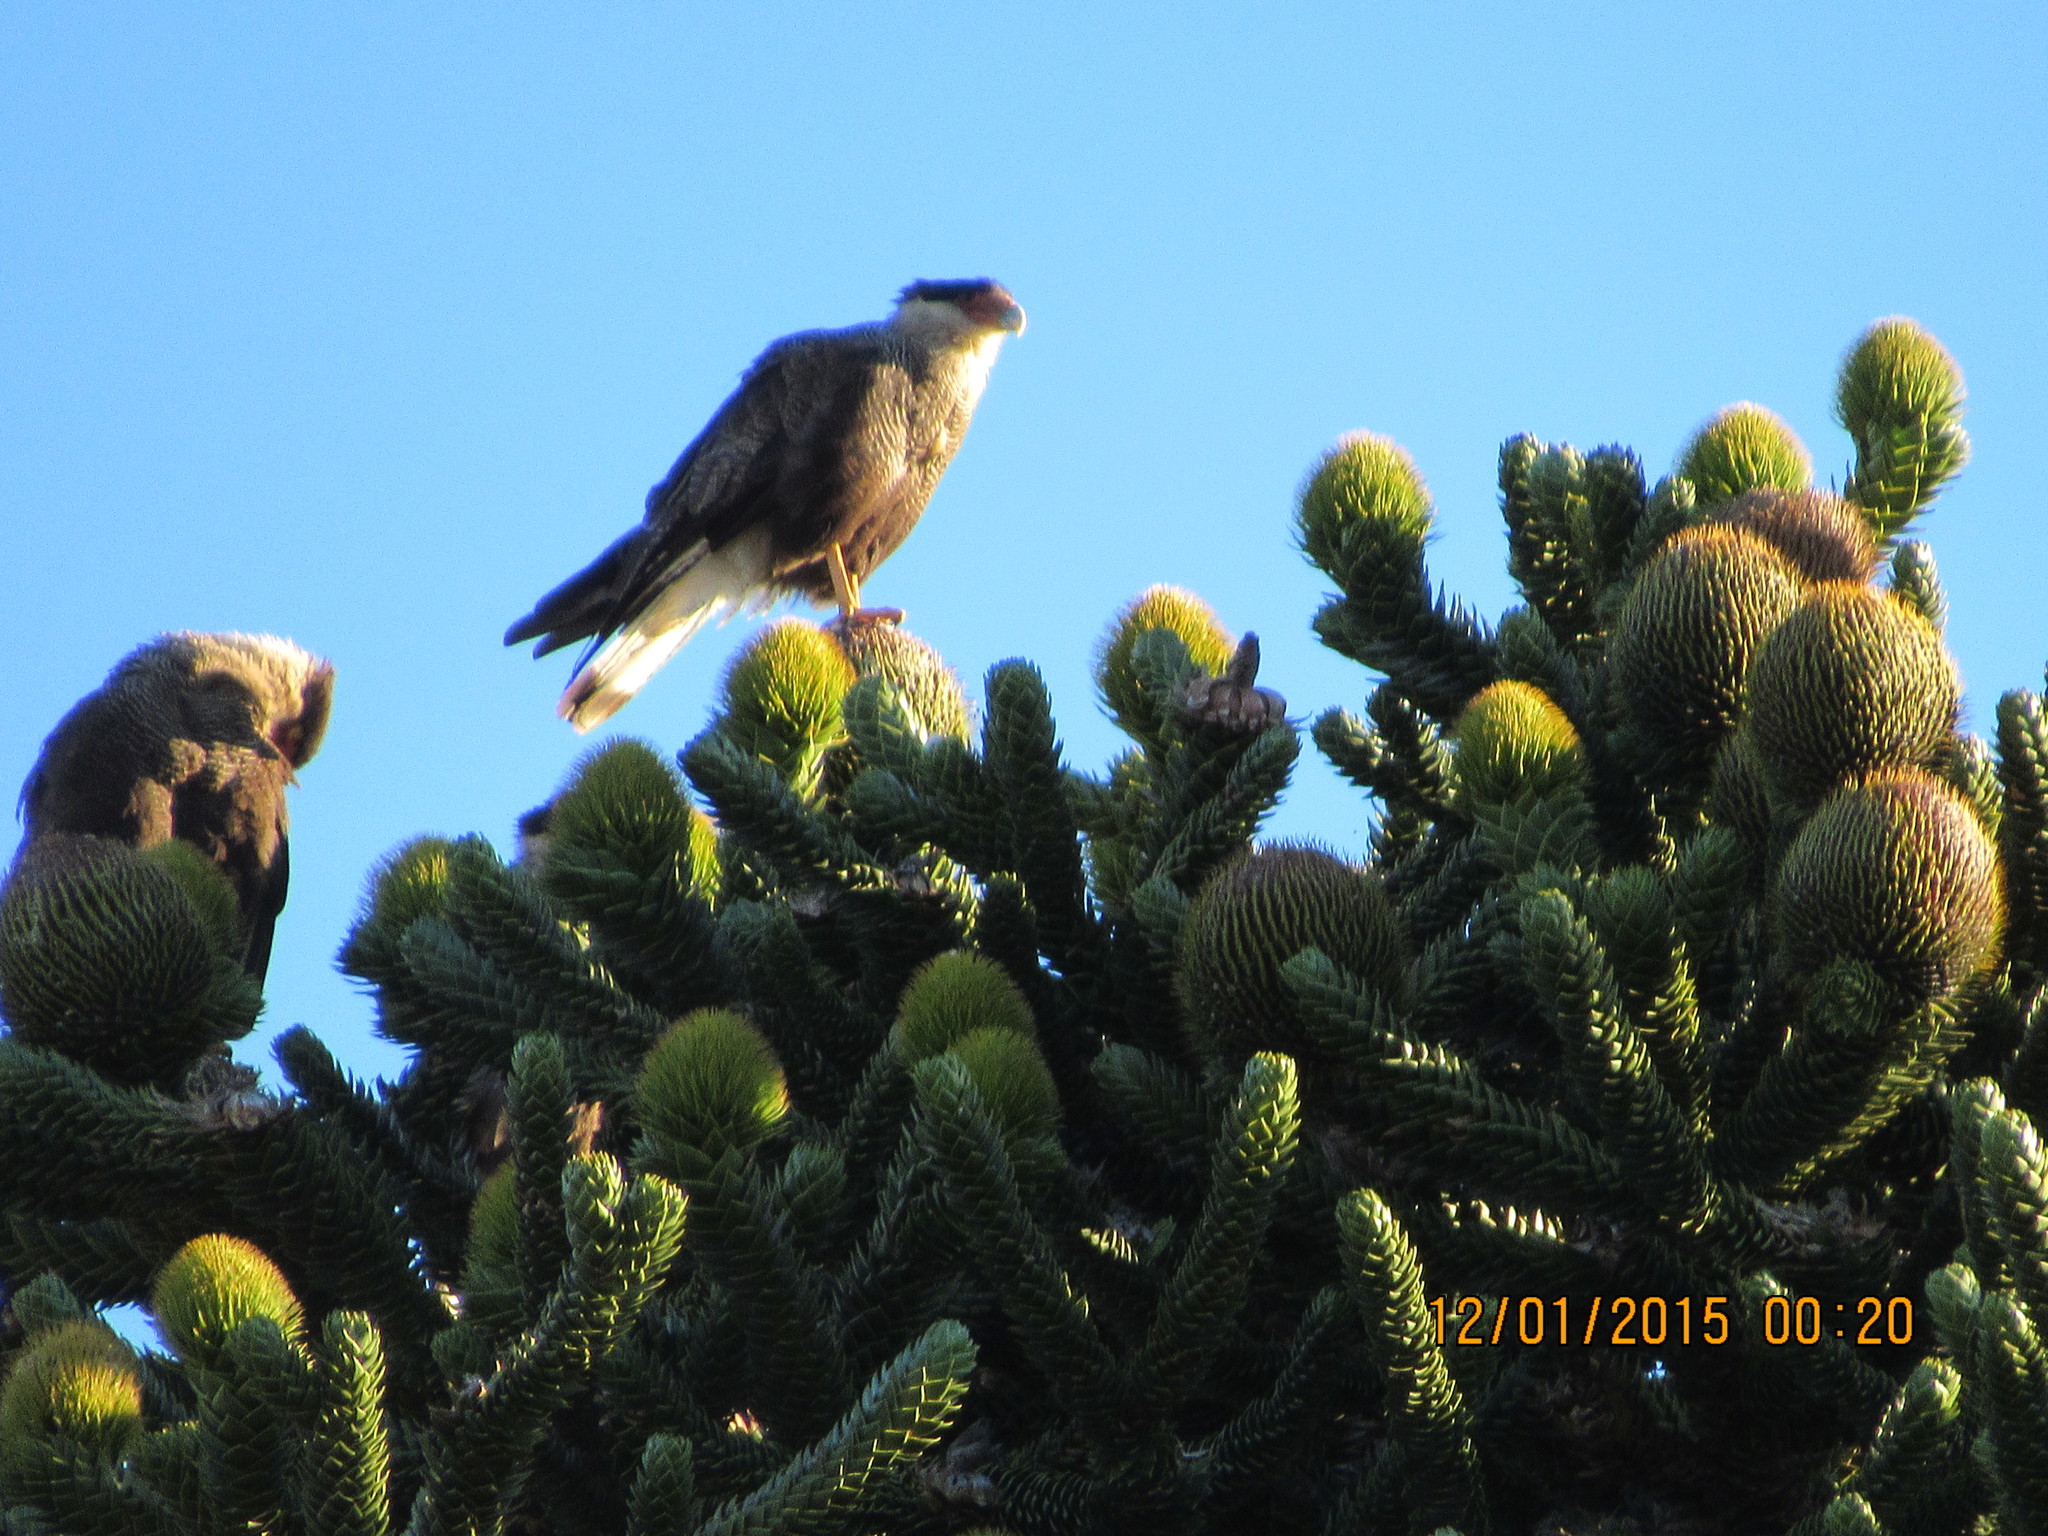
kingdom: Plantae
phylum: Tracheophyta
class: Pinopsida
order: Pinales
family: Araucariaceae
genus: Araucaria
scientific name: Araucaria araucana
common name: Monkey-puzzle
